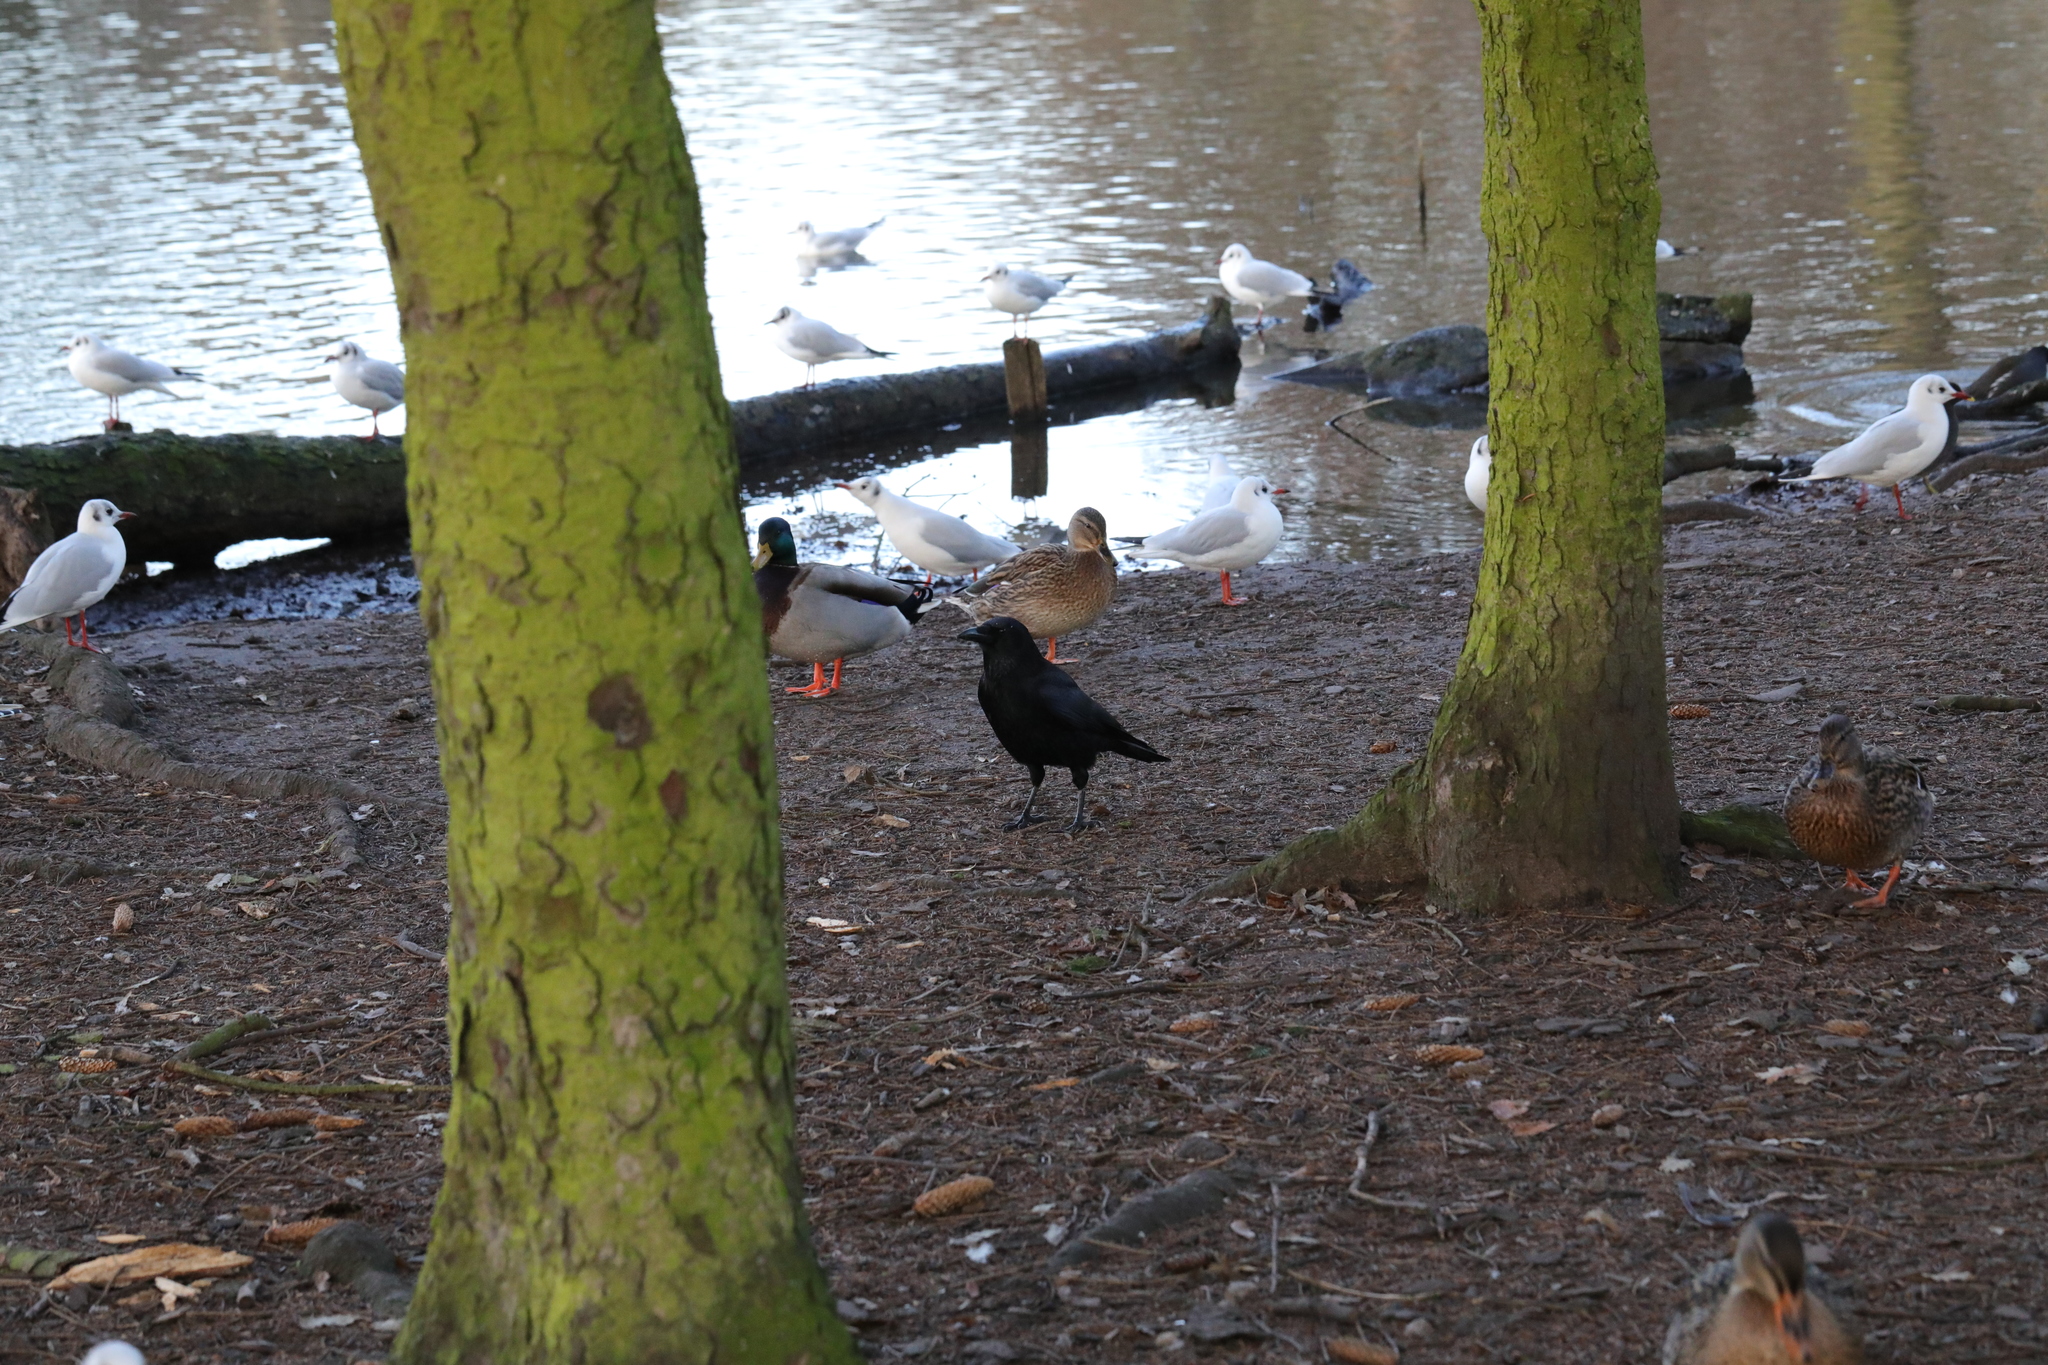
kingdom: Animalia
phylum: Chordata
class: Aves
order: Passeriformes
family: Corvidae
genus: Corvus
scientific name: Corvus corone
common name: Carrion crow
